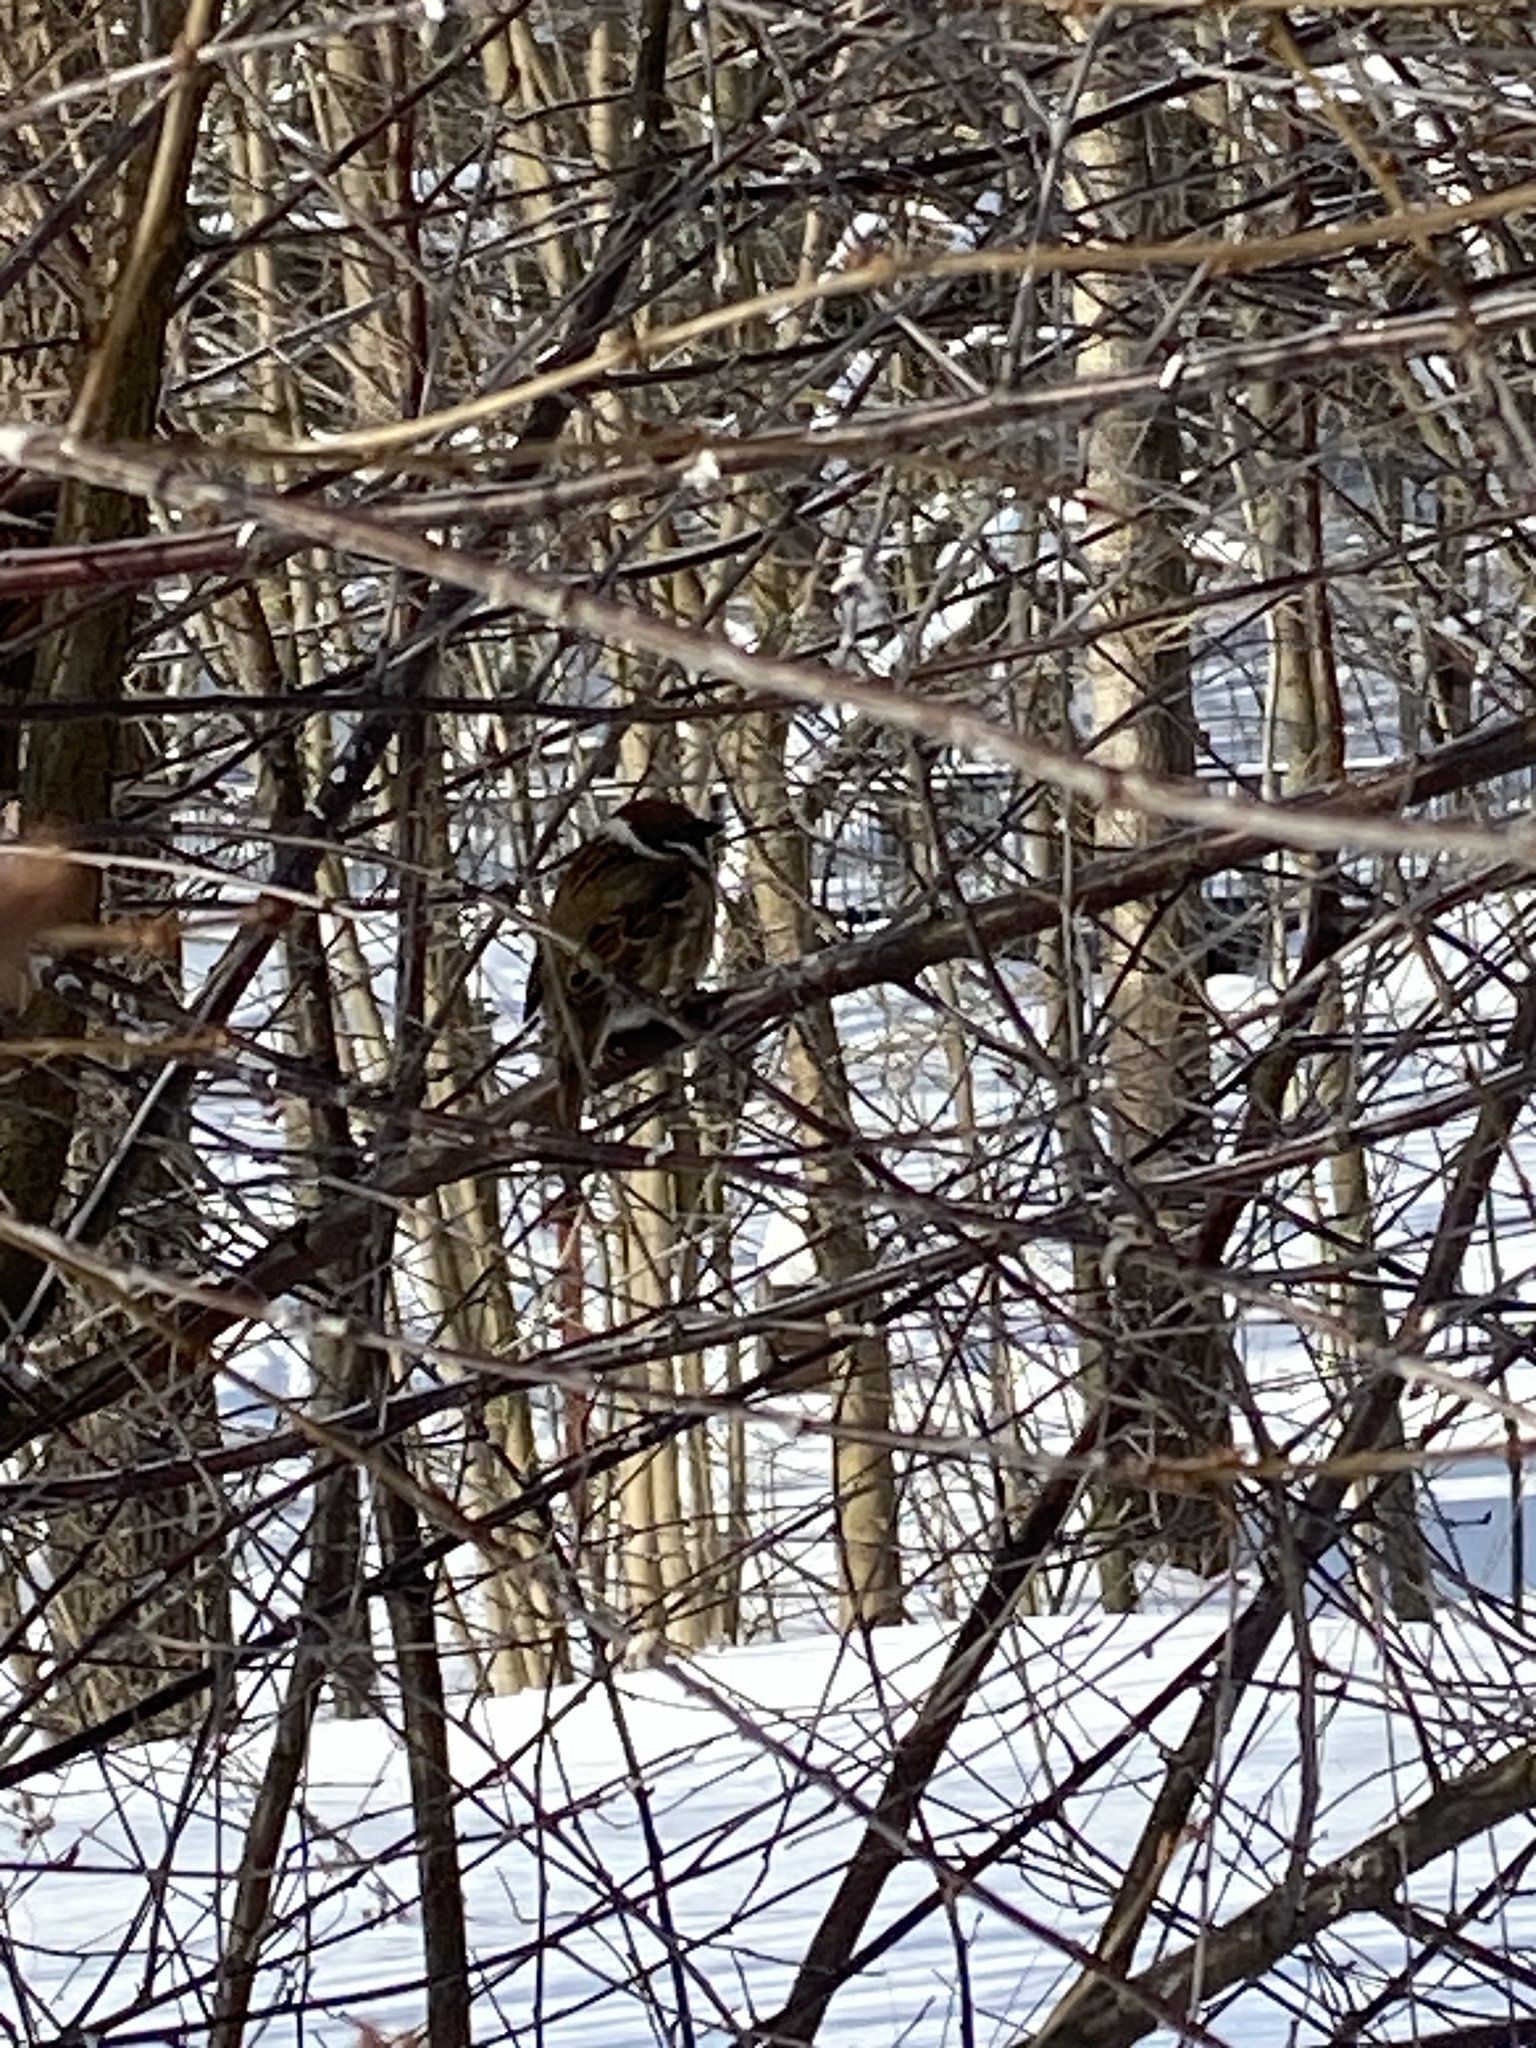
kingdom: Animalia
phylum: Chordata
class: Aves
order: Passeriformes
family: Passeridae
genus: Passer
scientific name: Passer montanus
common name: Eurasian tree sparrow
